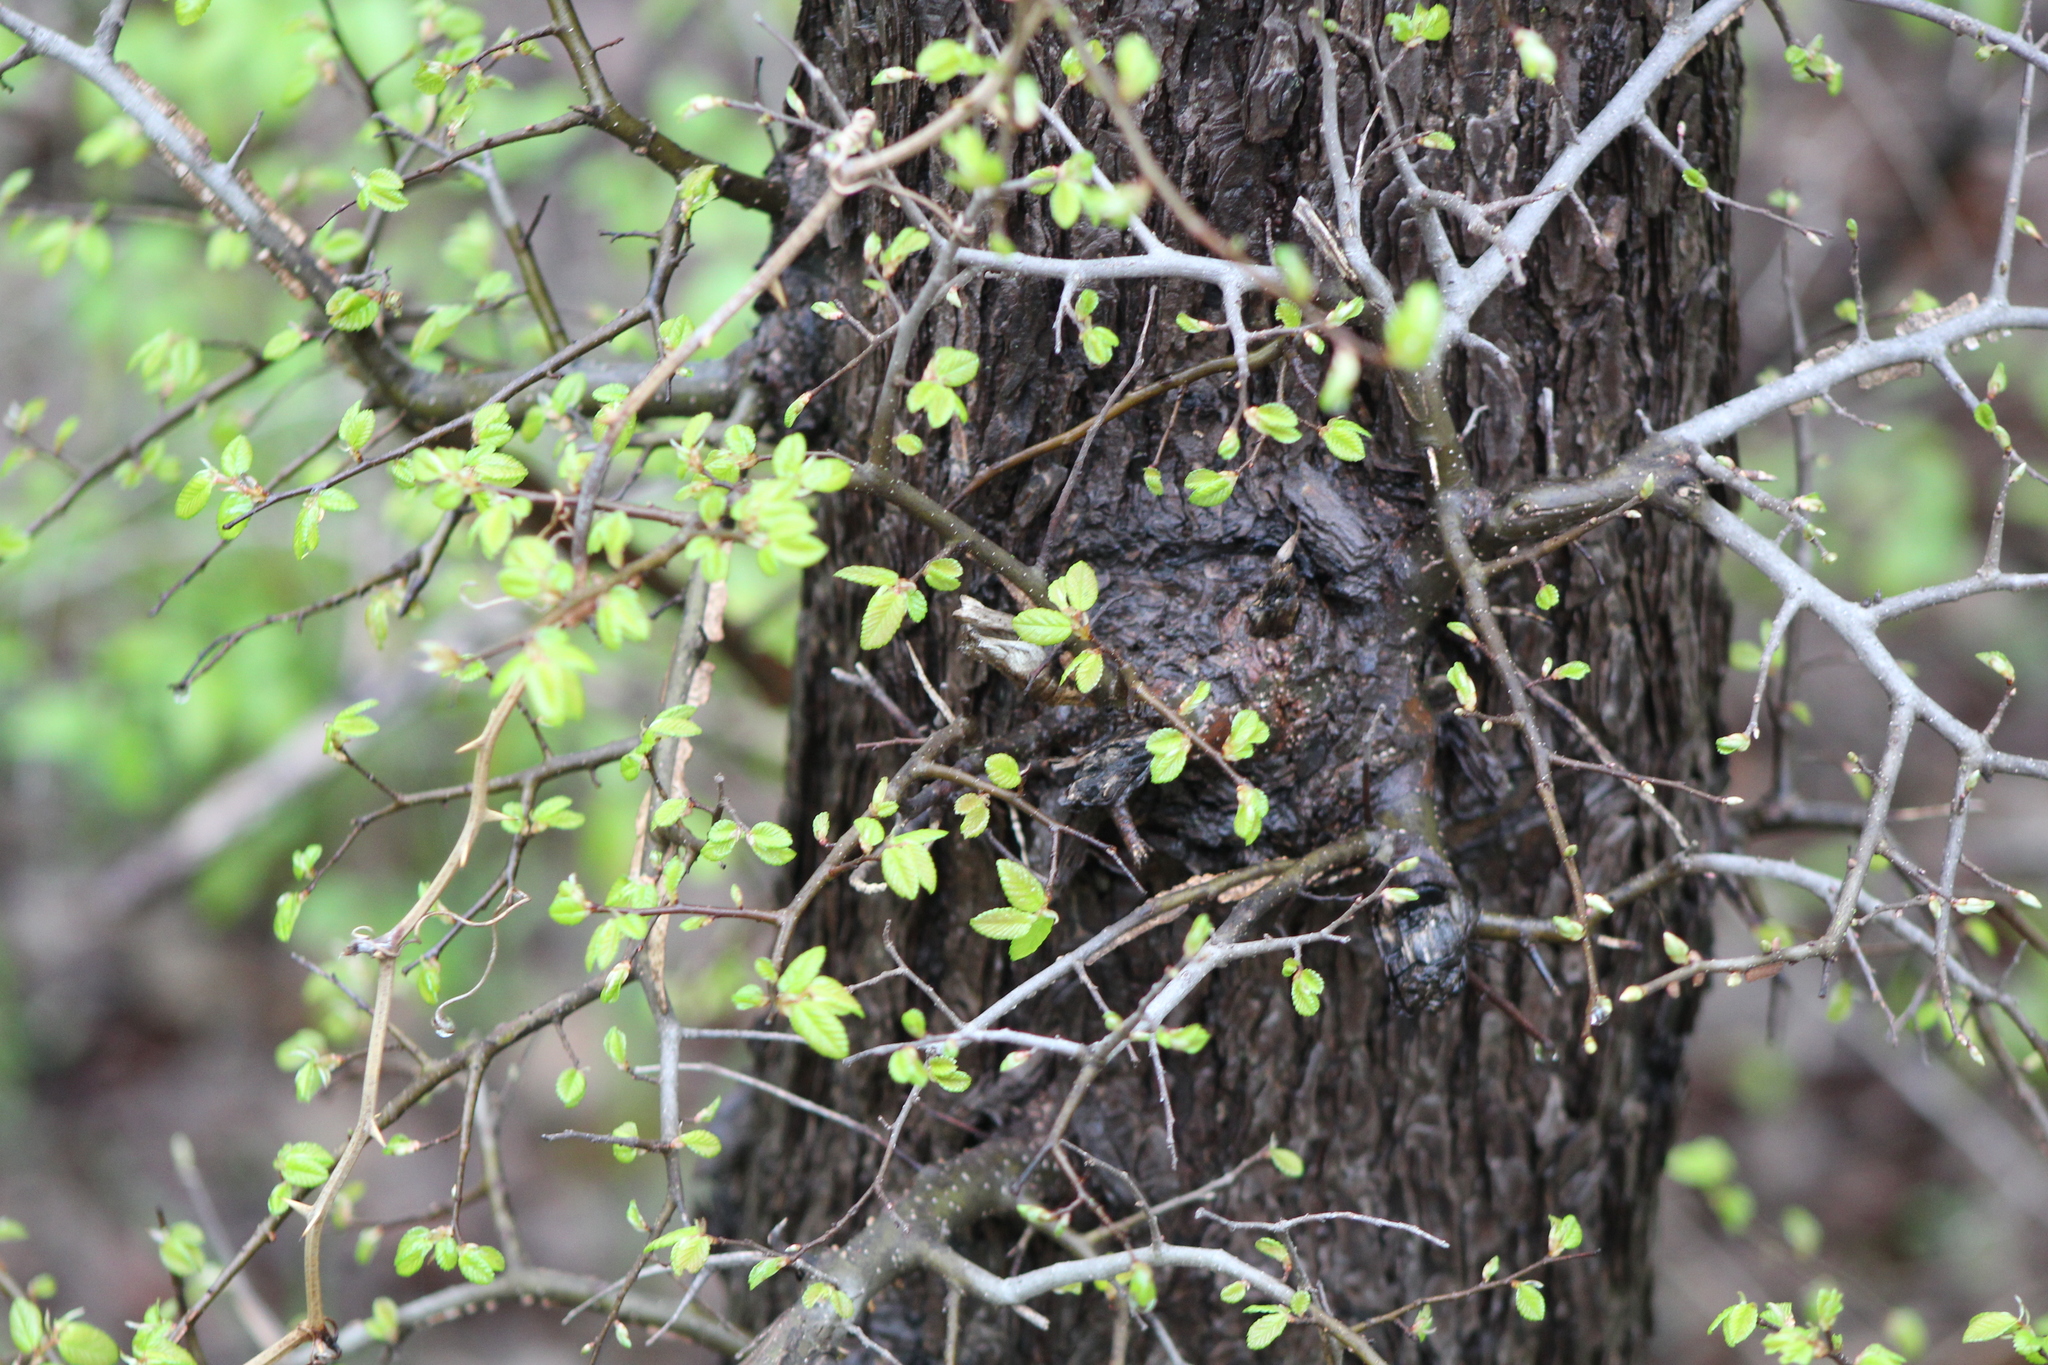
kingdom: Plantae
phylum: Tracheophyta
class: Magnoliopsida
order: Rosales
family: Ulmaceae
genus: Ulmus
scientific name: Ulmus crassifolia
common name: Basket elm
